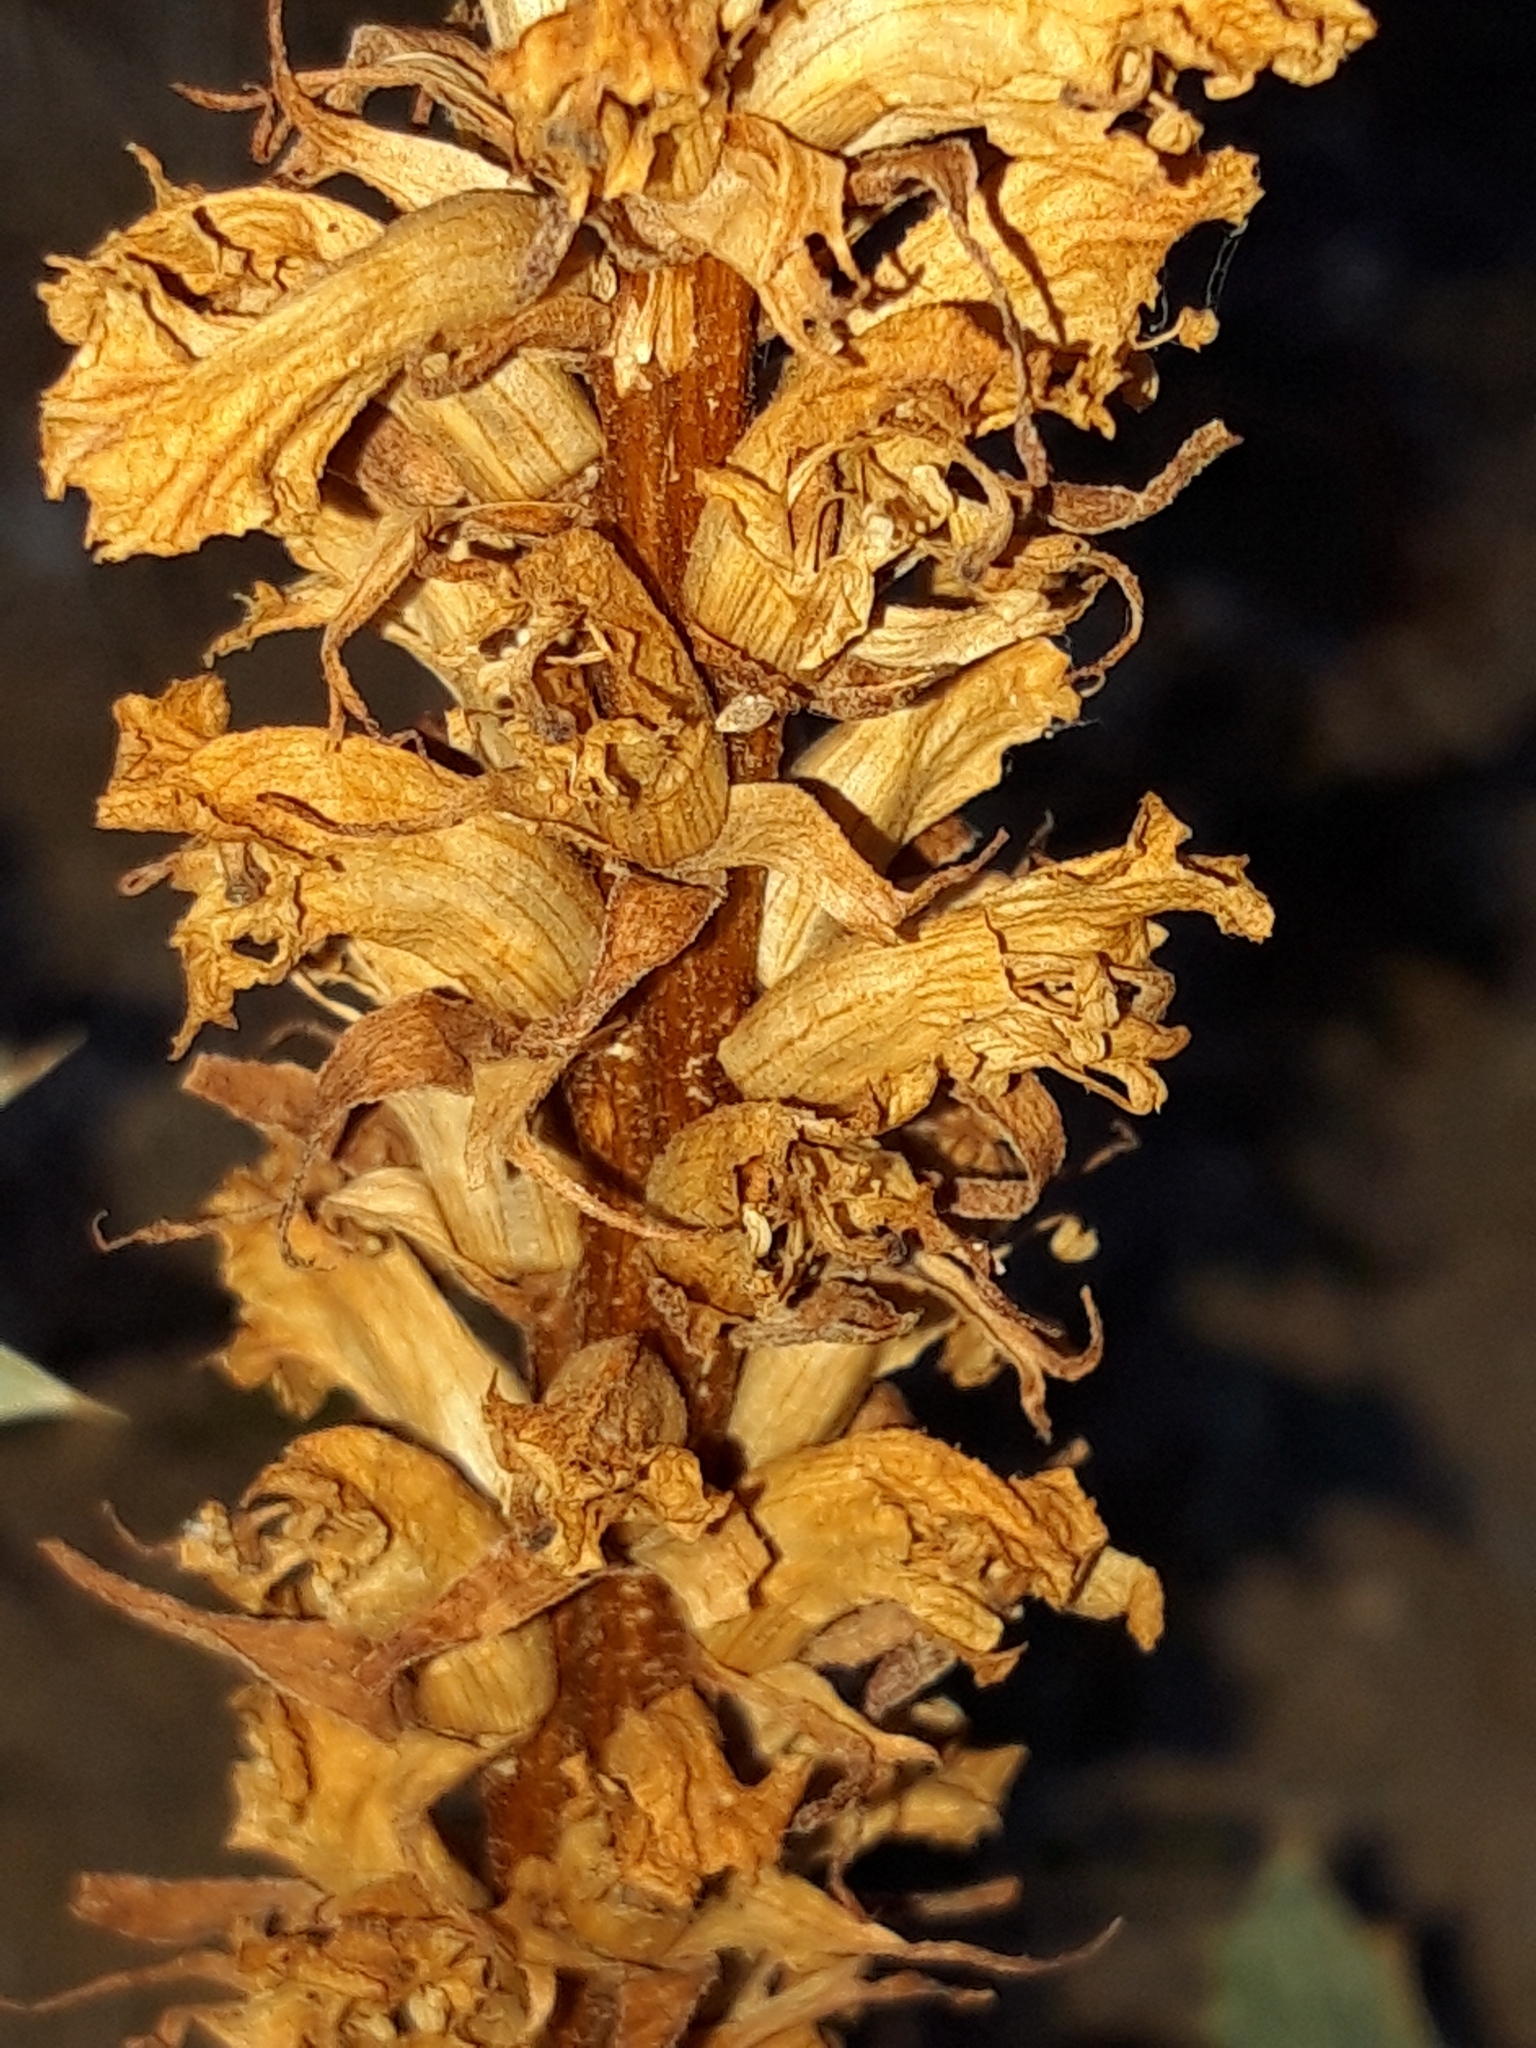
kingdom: Plantae
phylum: Tracheophyta
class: Magnoliopsida
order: Lamiales
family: Orobanchaceae
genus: Orobanche
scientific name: Orobanche amethystea
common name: Amethyst broomrape
